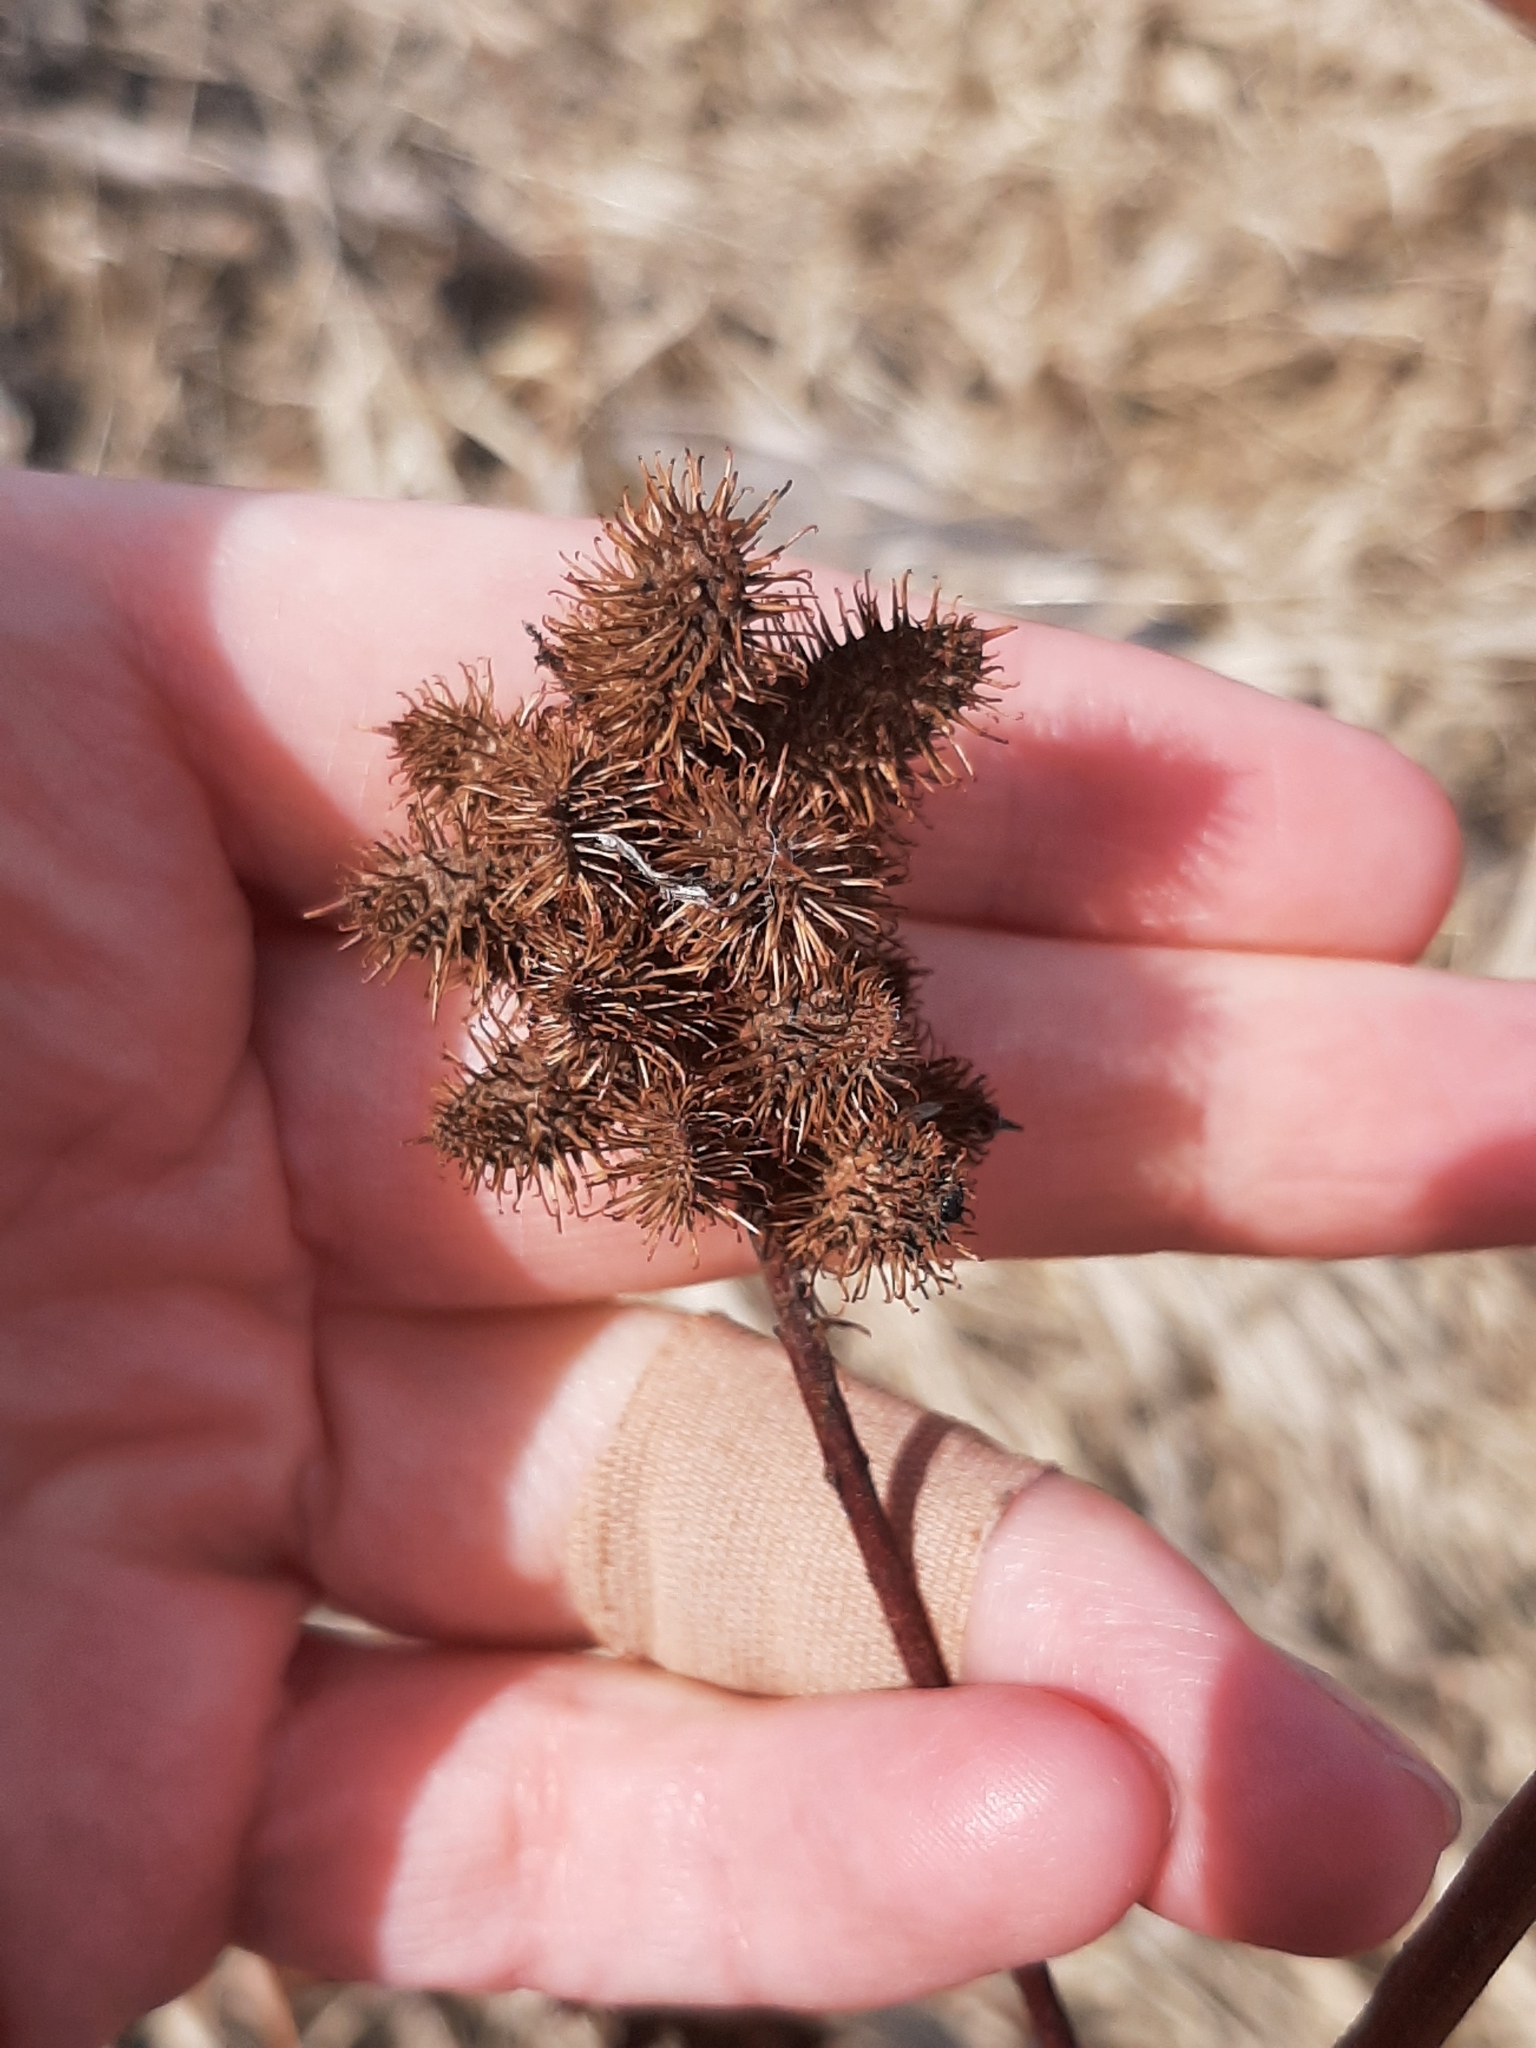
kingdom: Plantae
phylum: Tracheophyta
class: Magnoliopsida
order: Fabales
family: Fabaceae
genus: Glycyrrhiza
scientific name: Glycyrrhiza lepidota
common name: American liquorice
